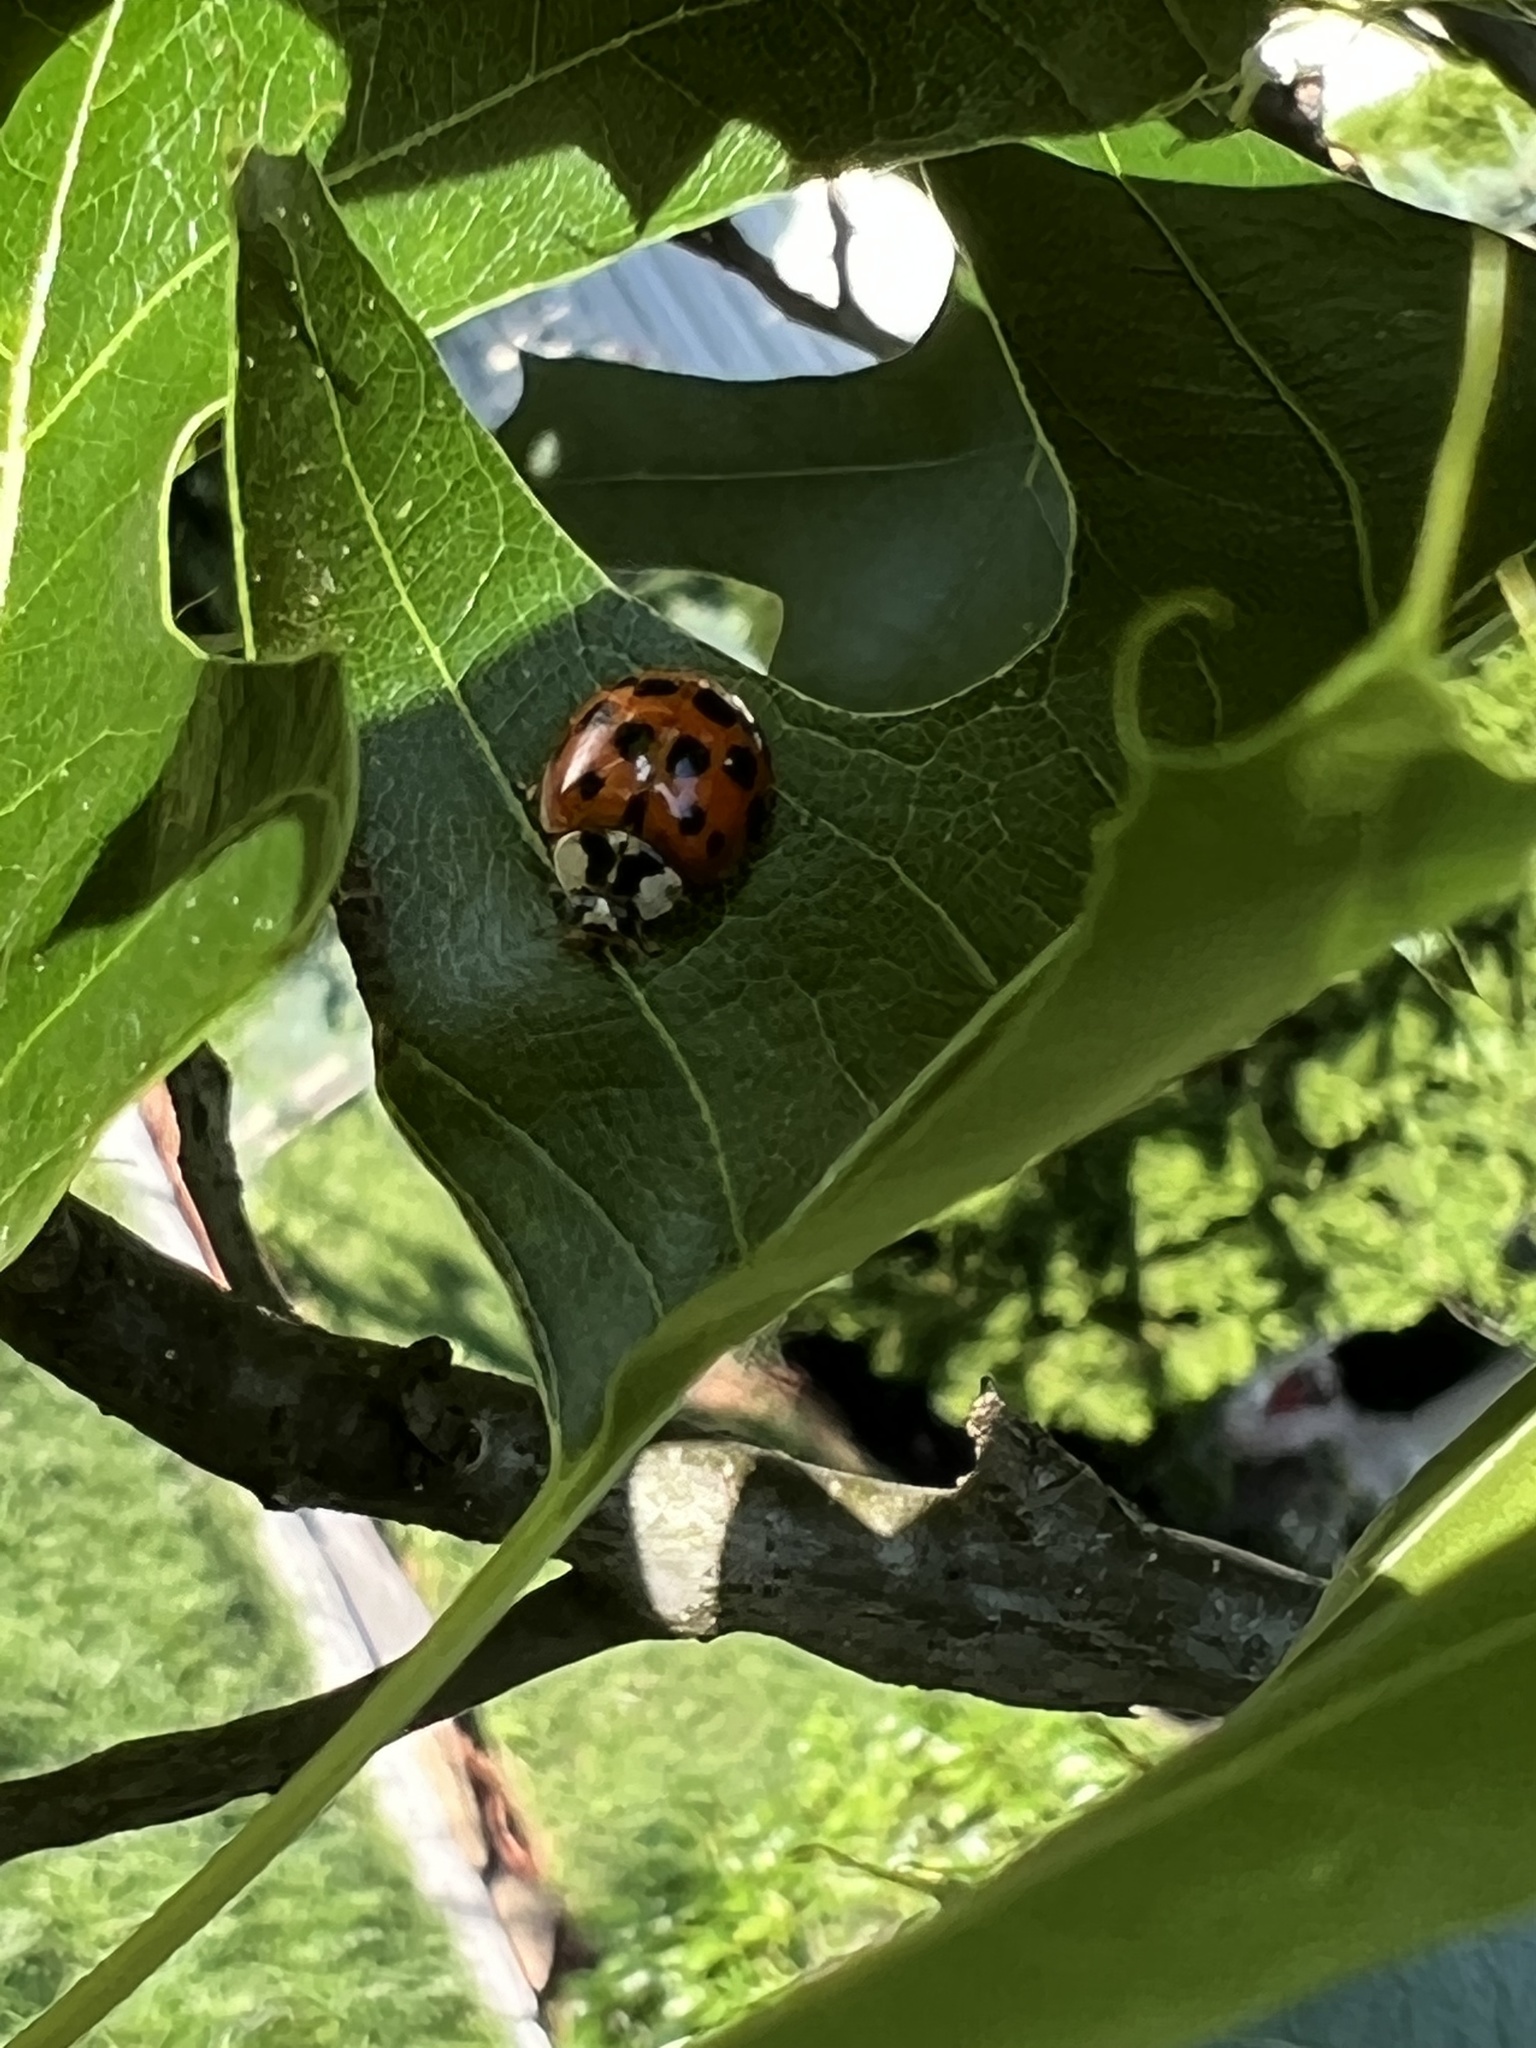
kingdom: Animalia
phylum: Arthropoda
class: Insecta
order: Coleoptera
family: Coccinellidae
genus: Harmonia
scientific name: Harmonia axyridis
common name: Harlequin ladybird
